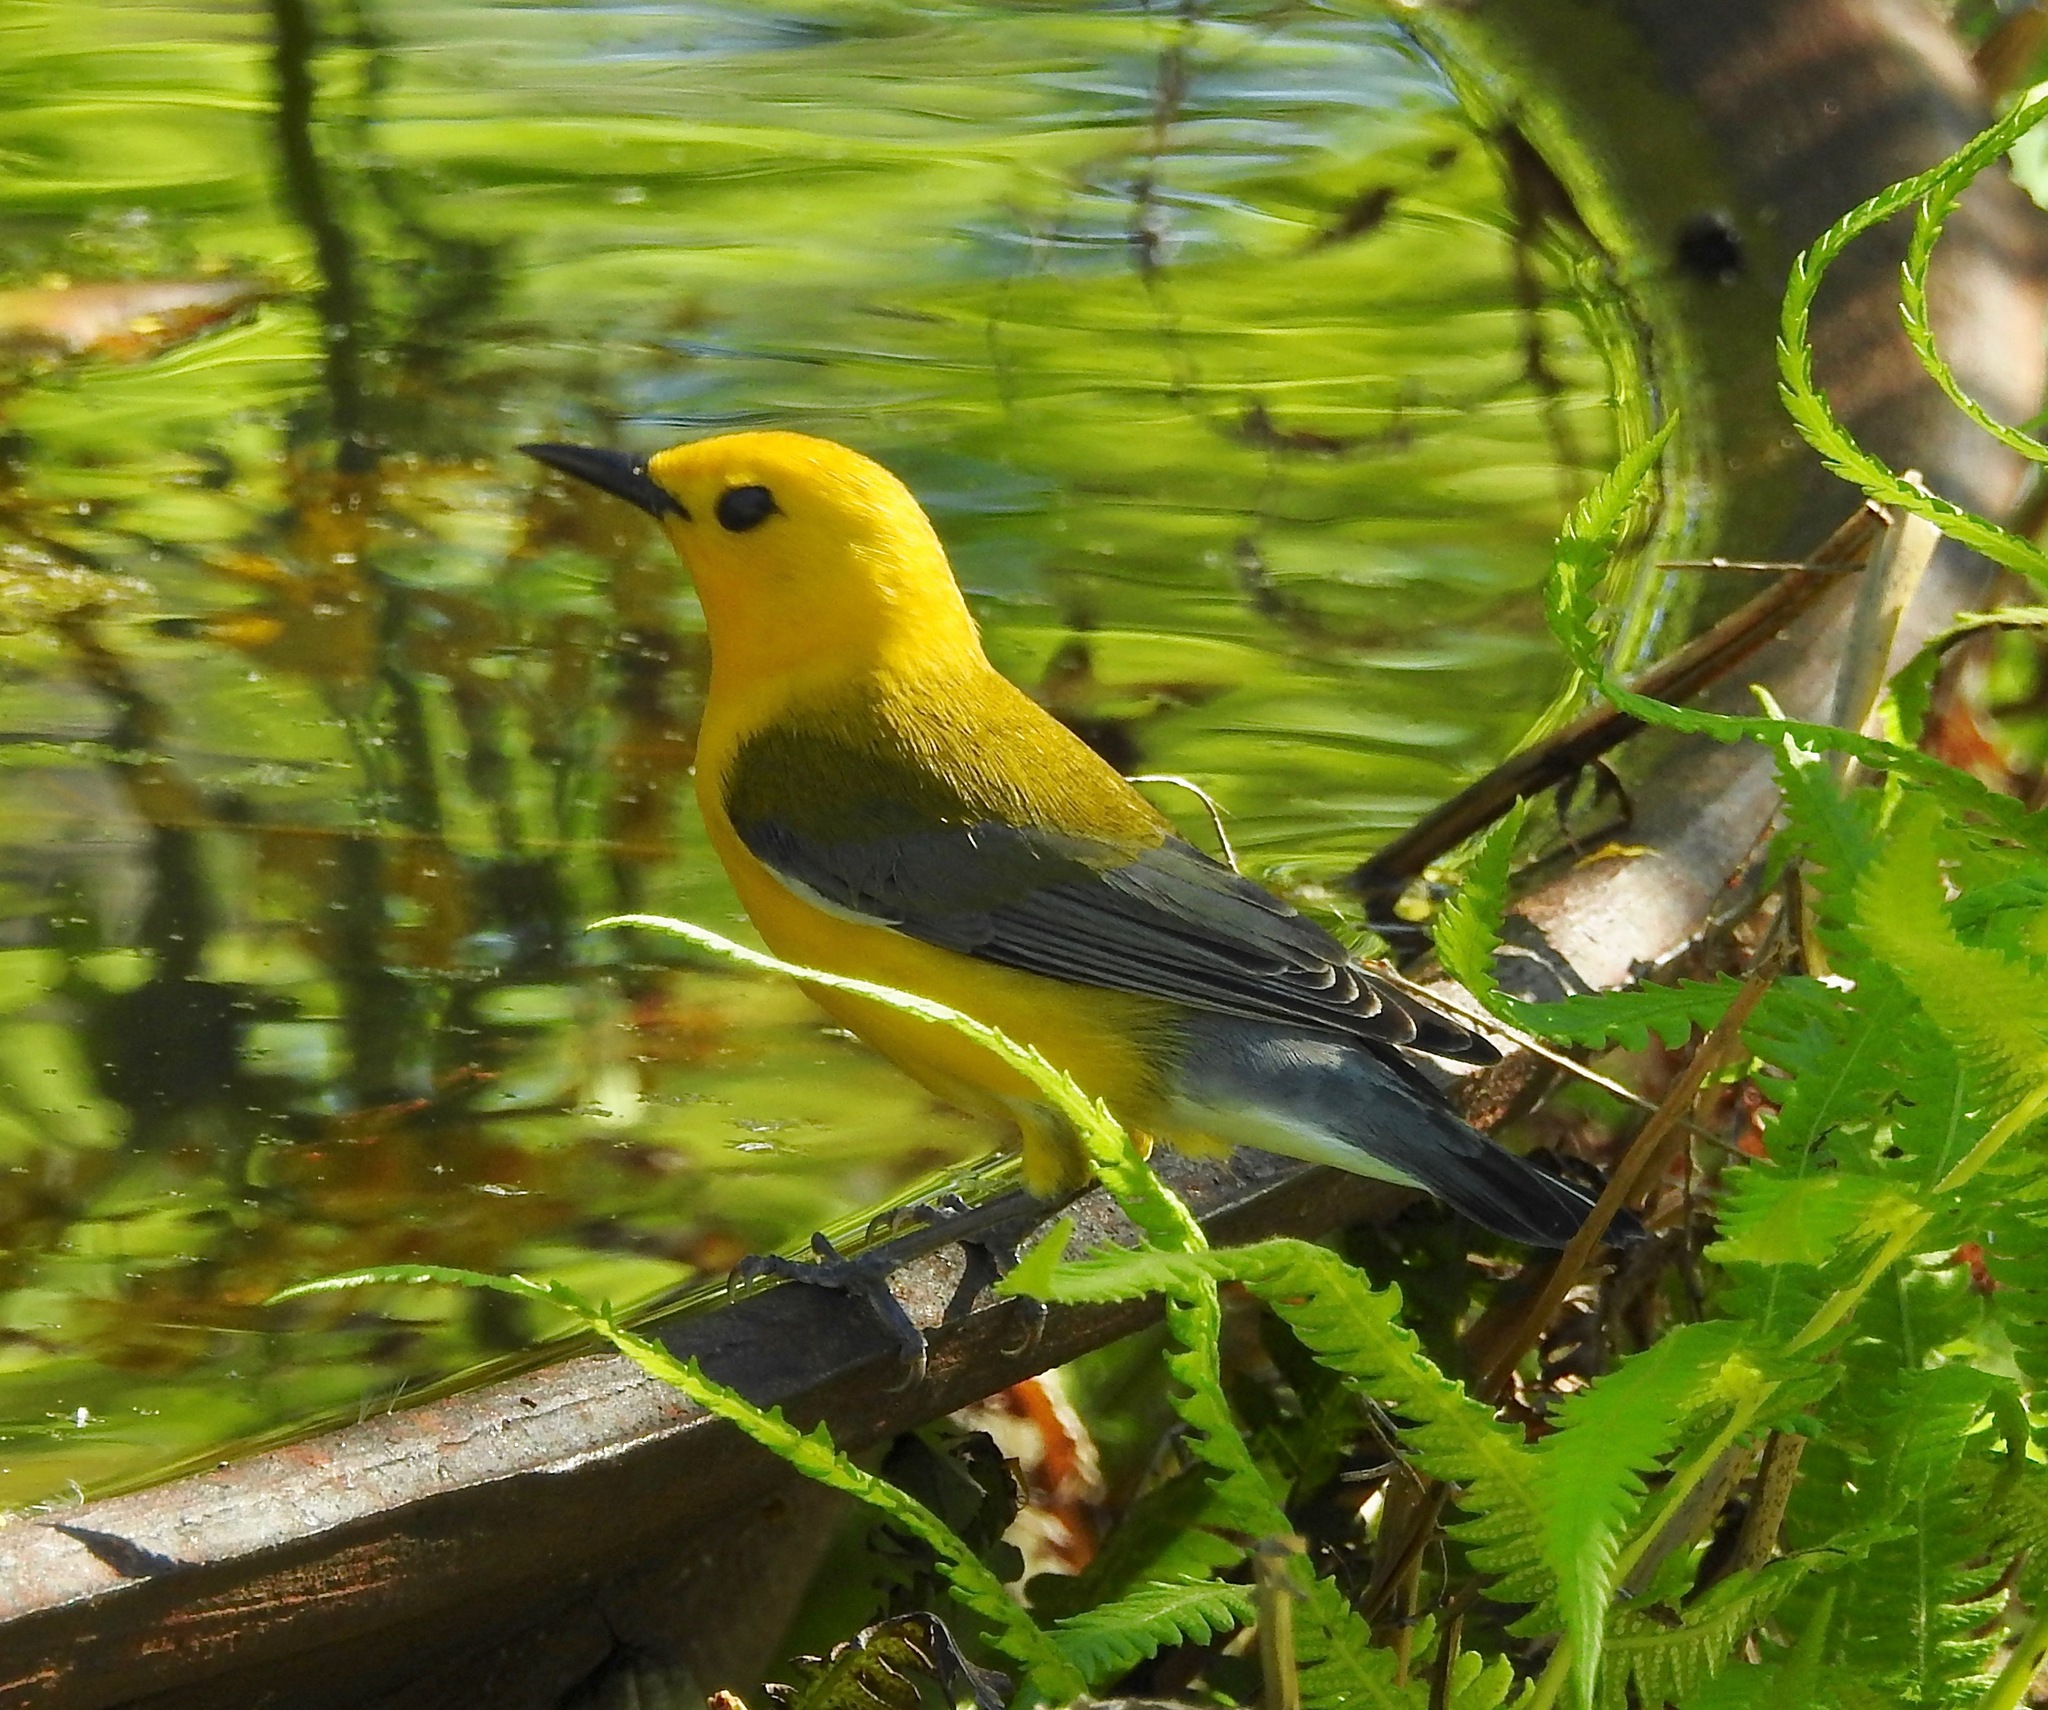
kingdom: Animalia
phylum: Chordata
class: Aves
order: Passeriformes
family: Parulidae
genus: Protonotaria
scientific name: Protonotaria citrea
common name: Prothonotary warbler
